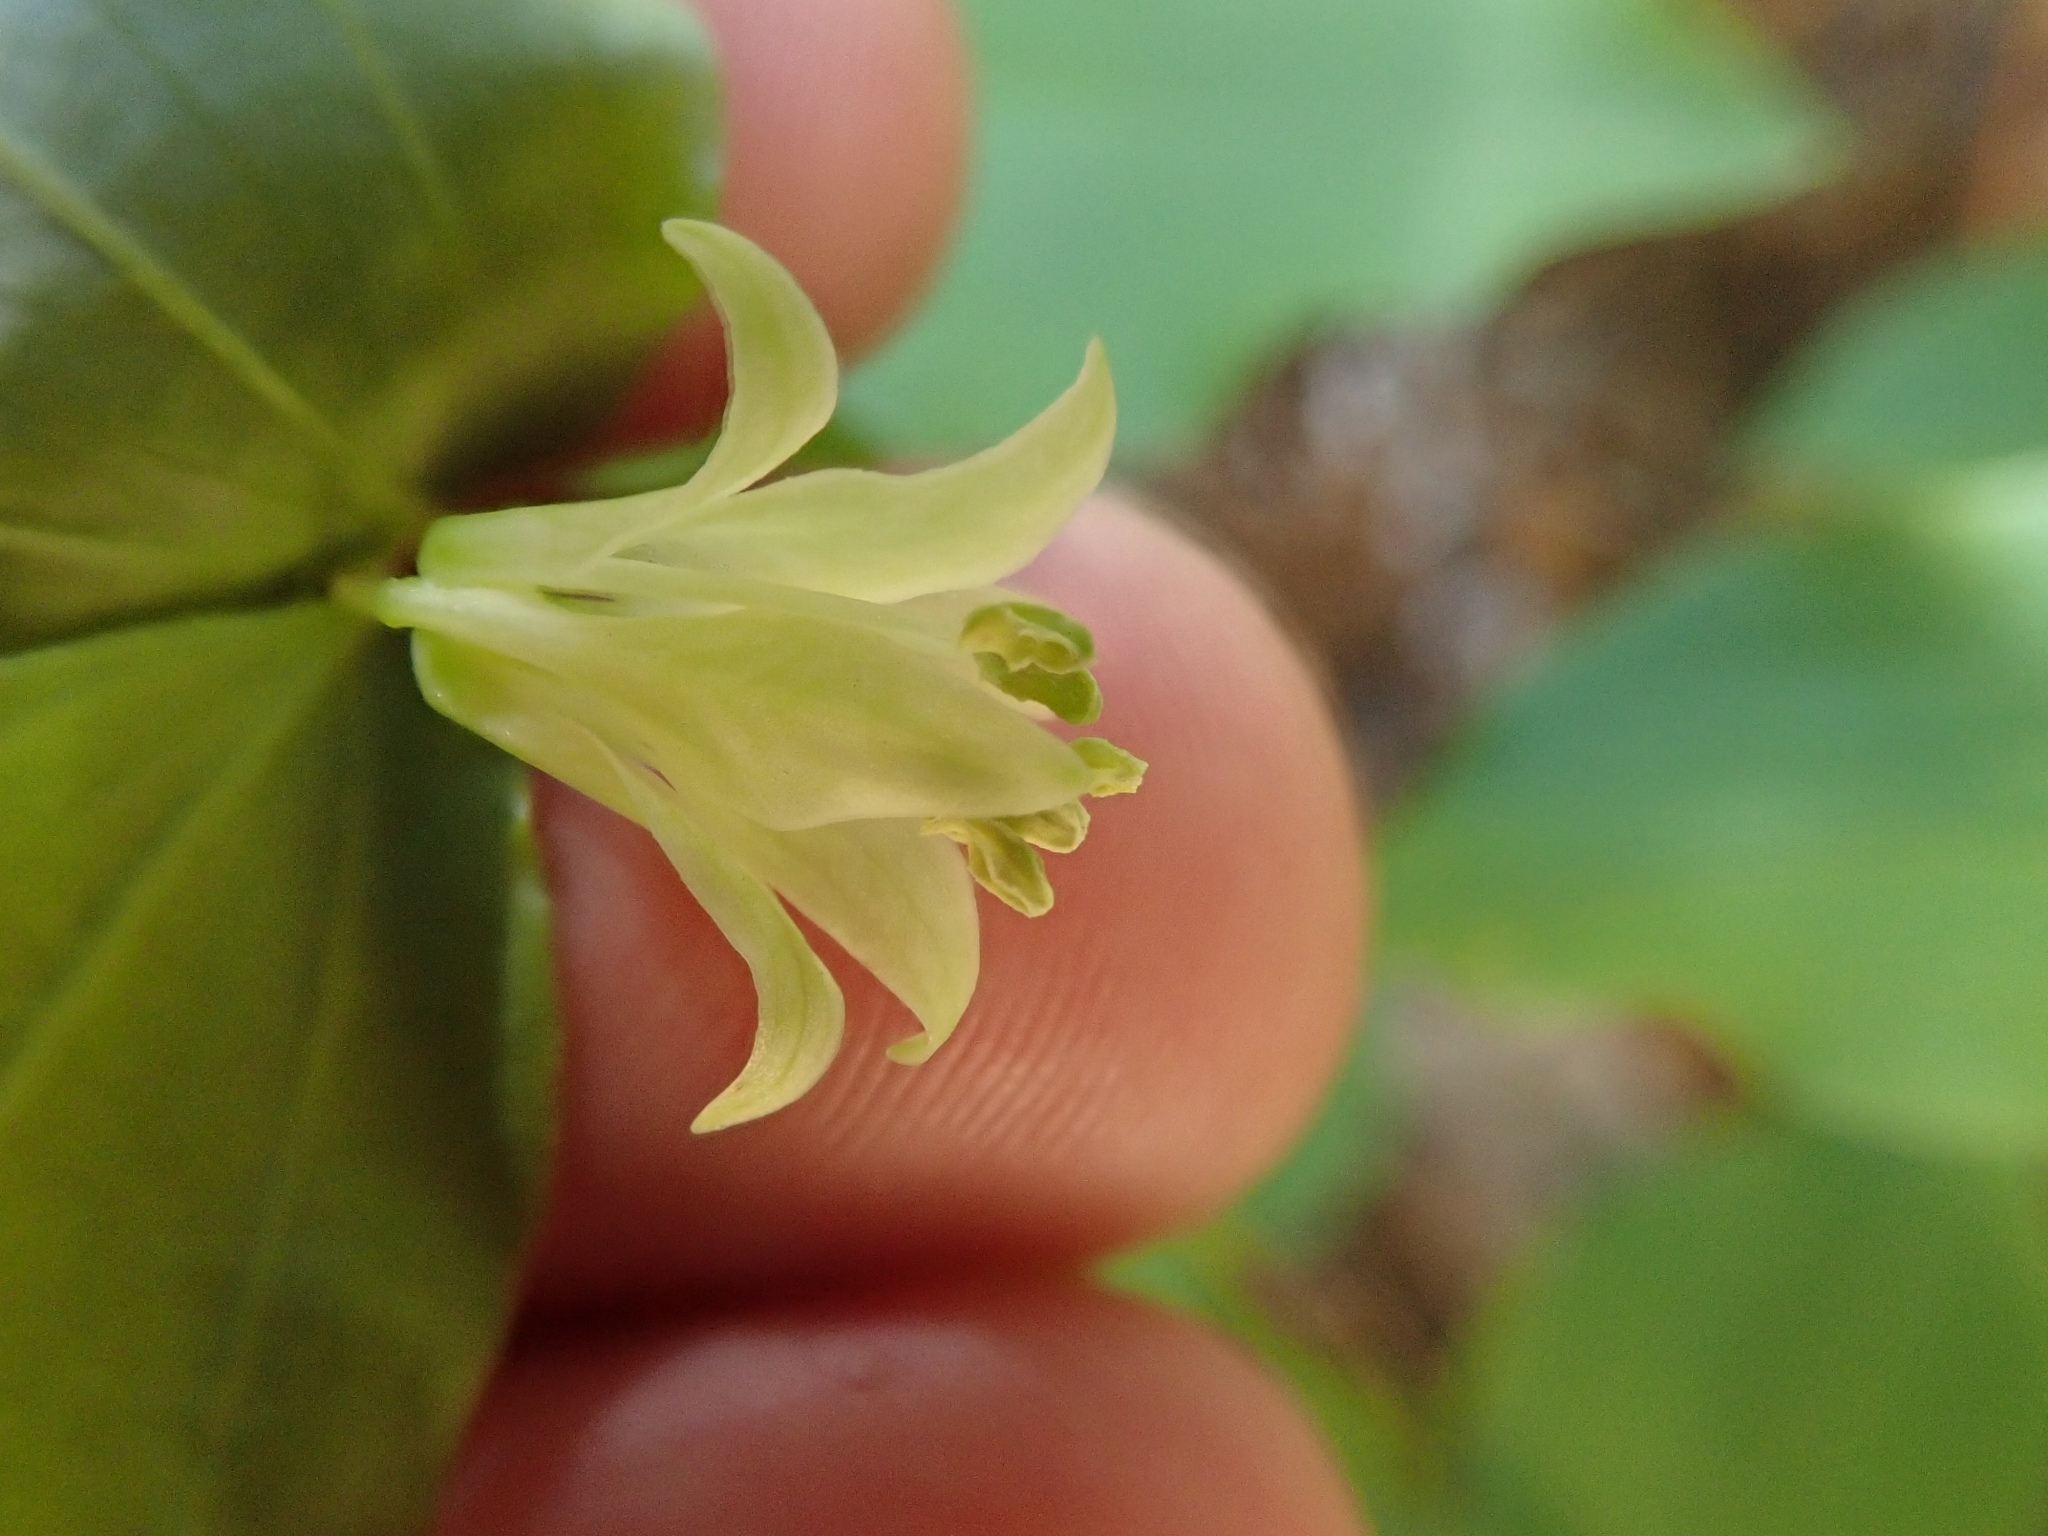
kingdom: Plantae
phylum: Tracheophyta
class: Liliopsida
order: Liliales
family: Liliaceae
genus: Prosartes
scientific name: Prosartes hookeri
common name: Fairy-bells
